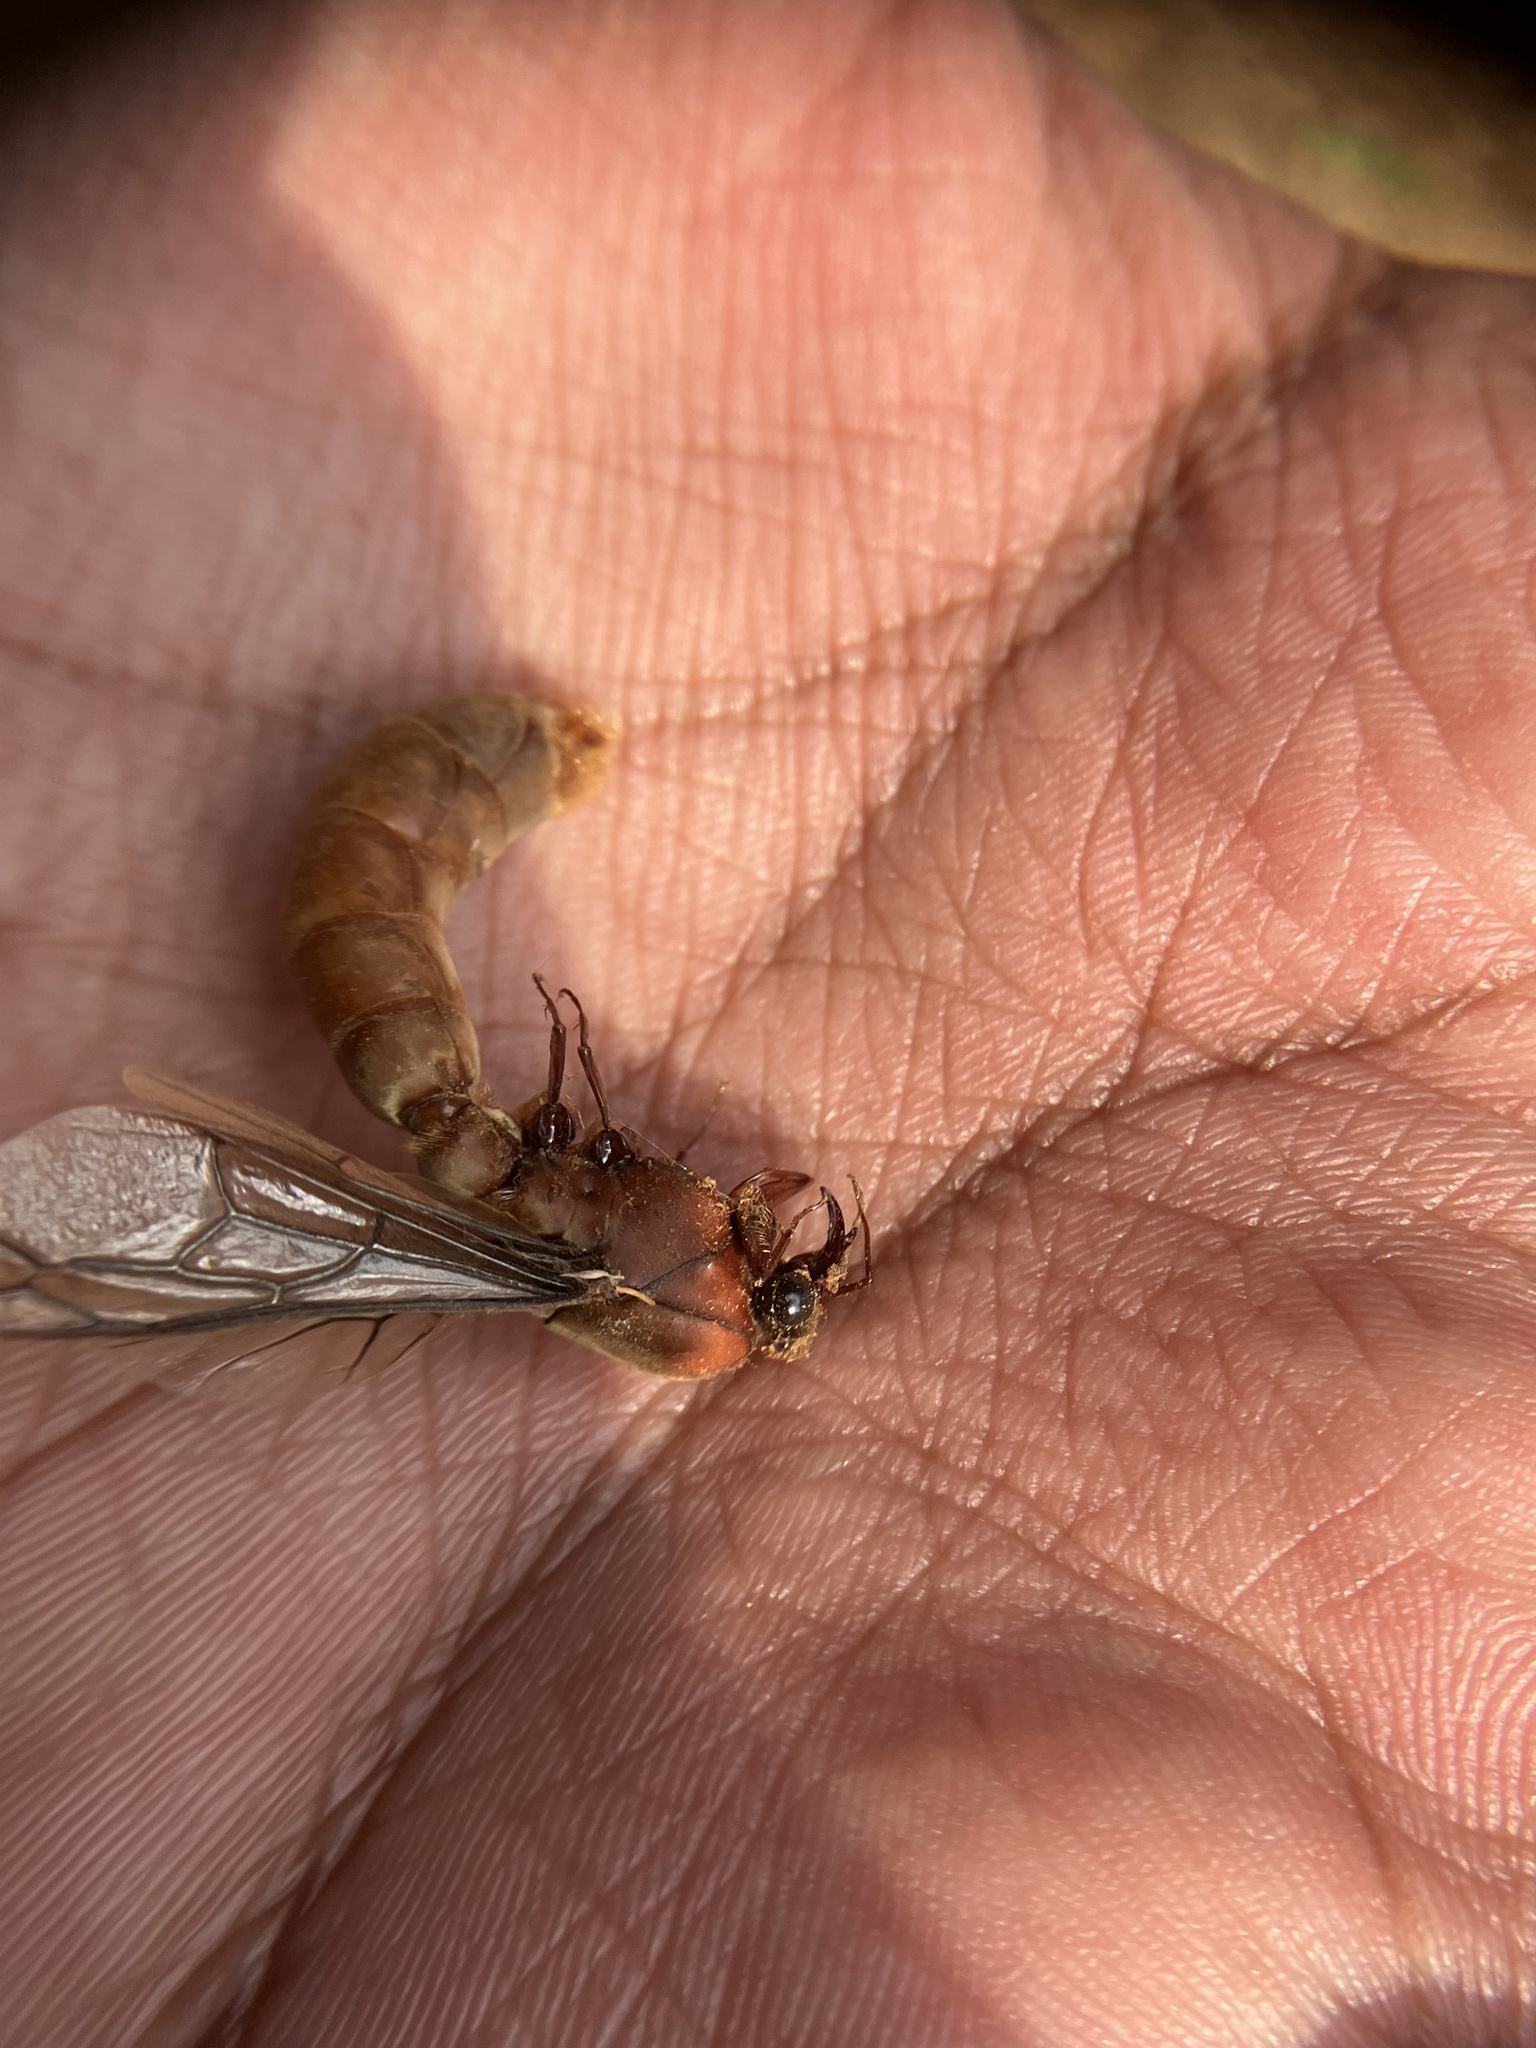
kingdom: Animalia
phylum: Arthropoda
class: Insecta
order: Hymenoptera
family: Formicidae
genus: Dorylus
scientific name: Dorylus labiatus
